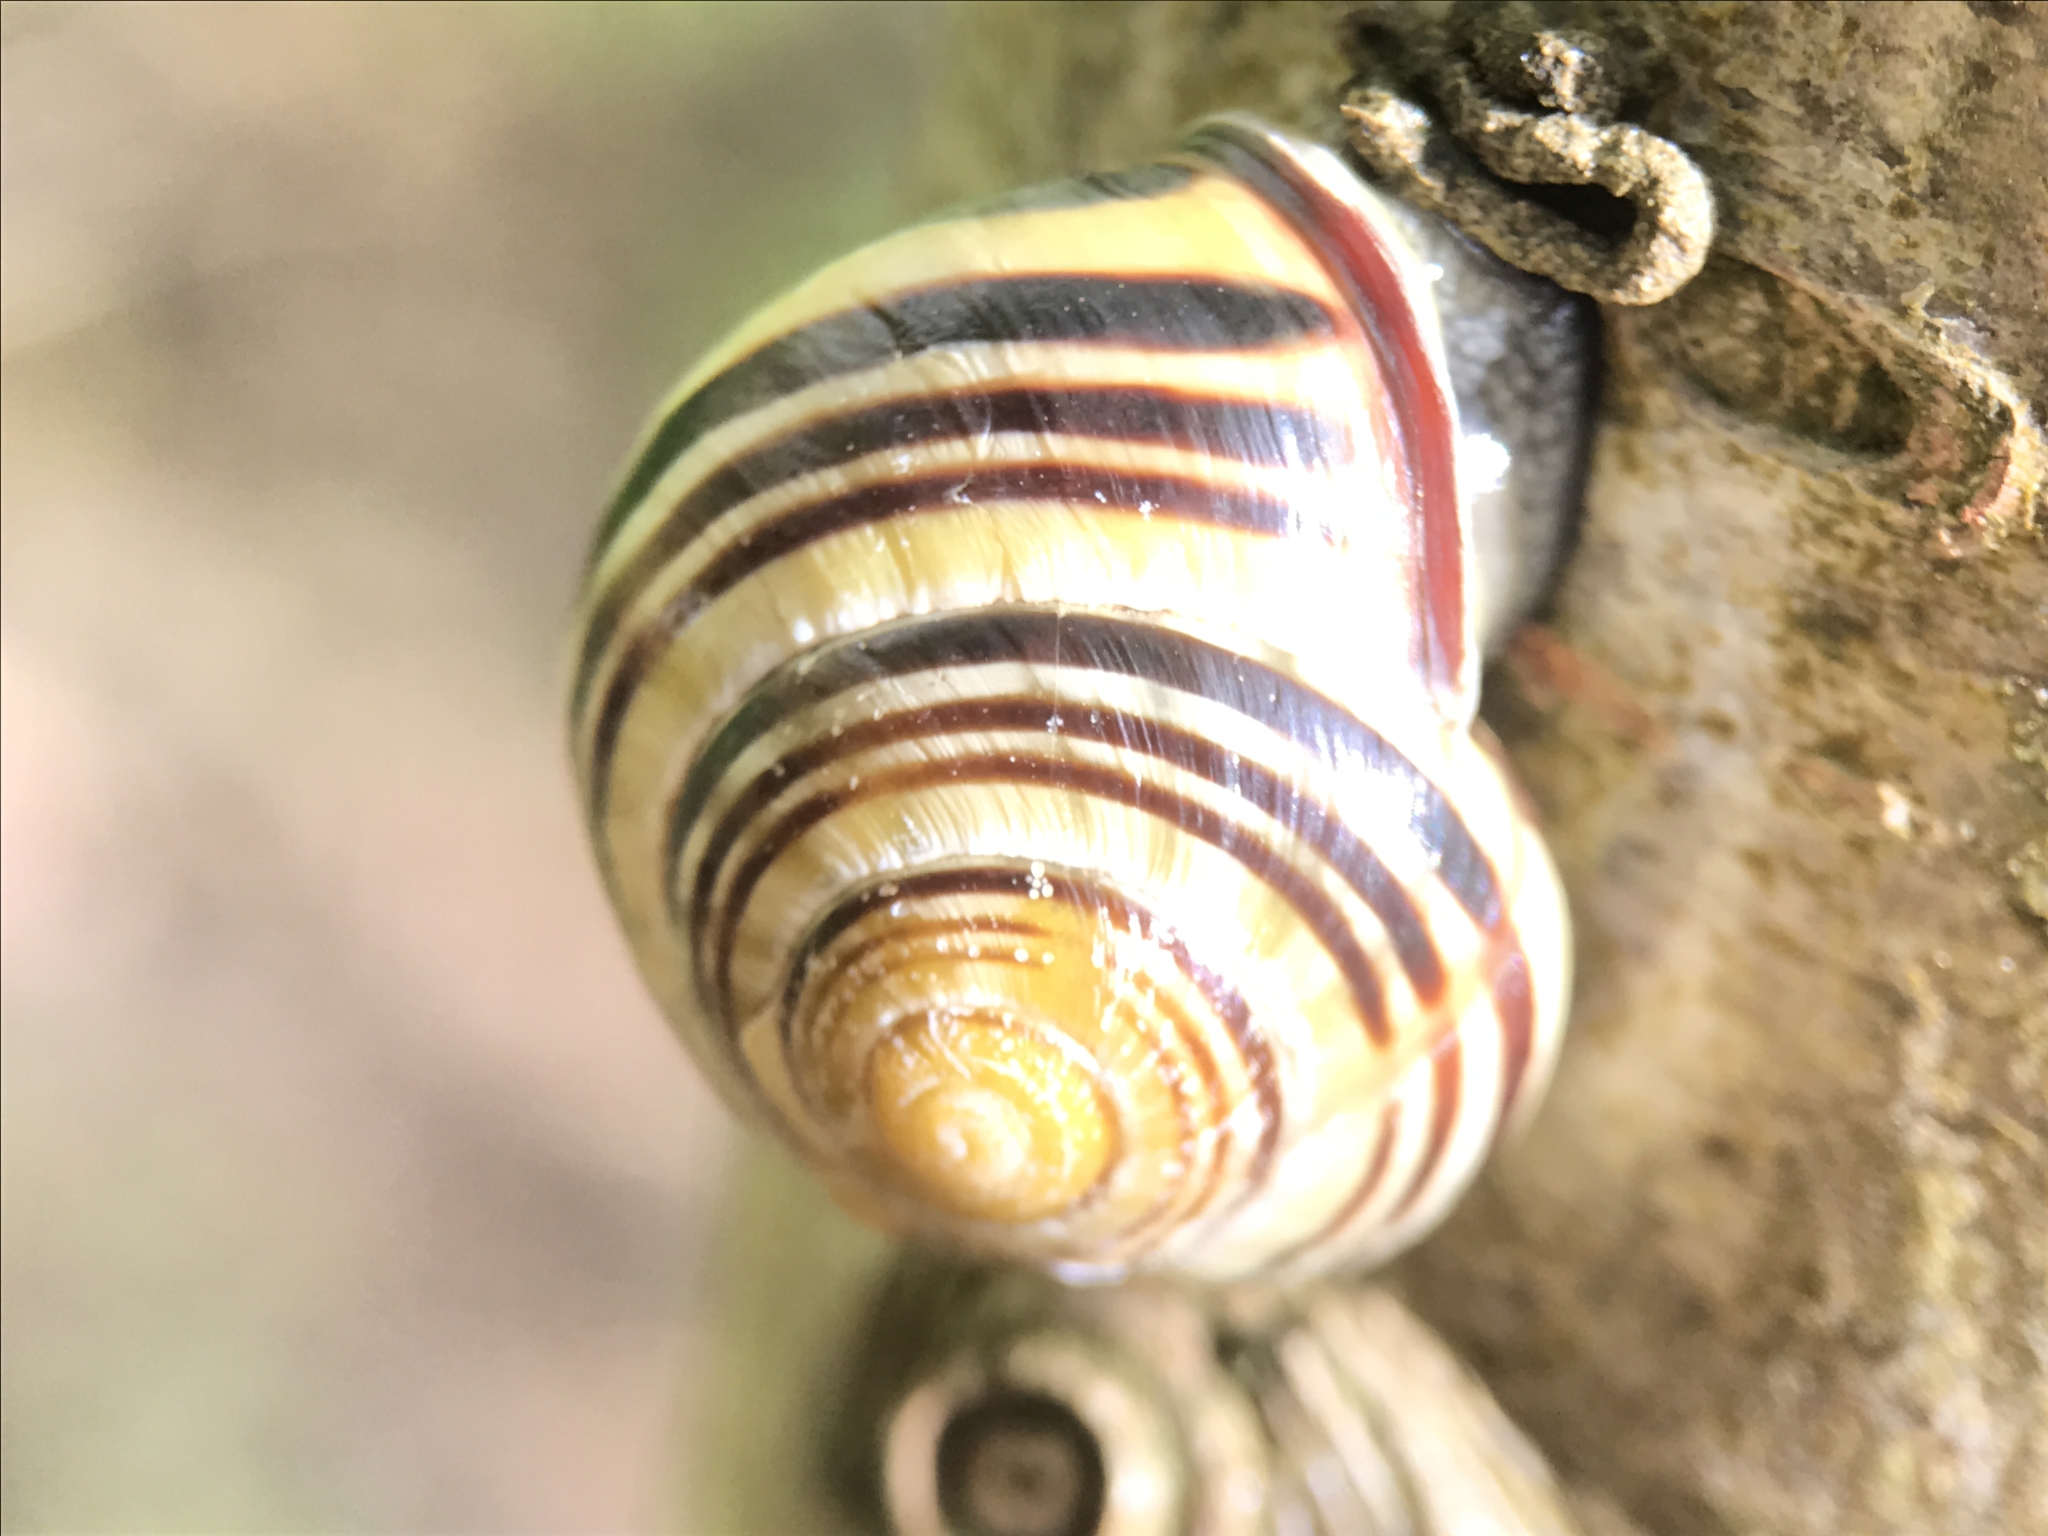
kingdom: Animalia
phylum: Mollusca
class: Gastropoda
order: Stylommatophora
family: Helicidae
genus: Cepaea
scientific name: Cepaea nemoralis
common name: Grovesnail
